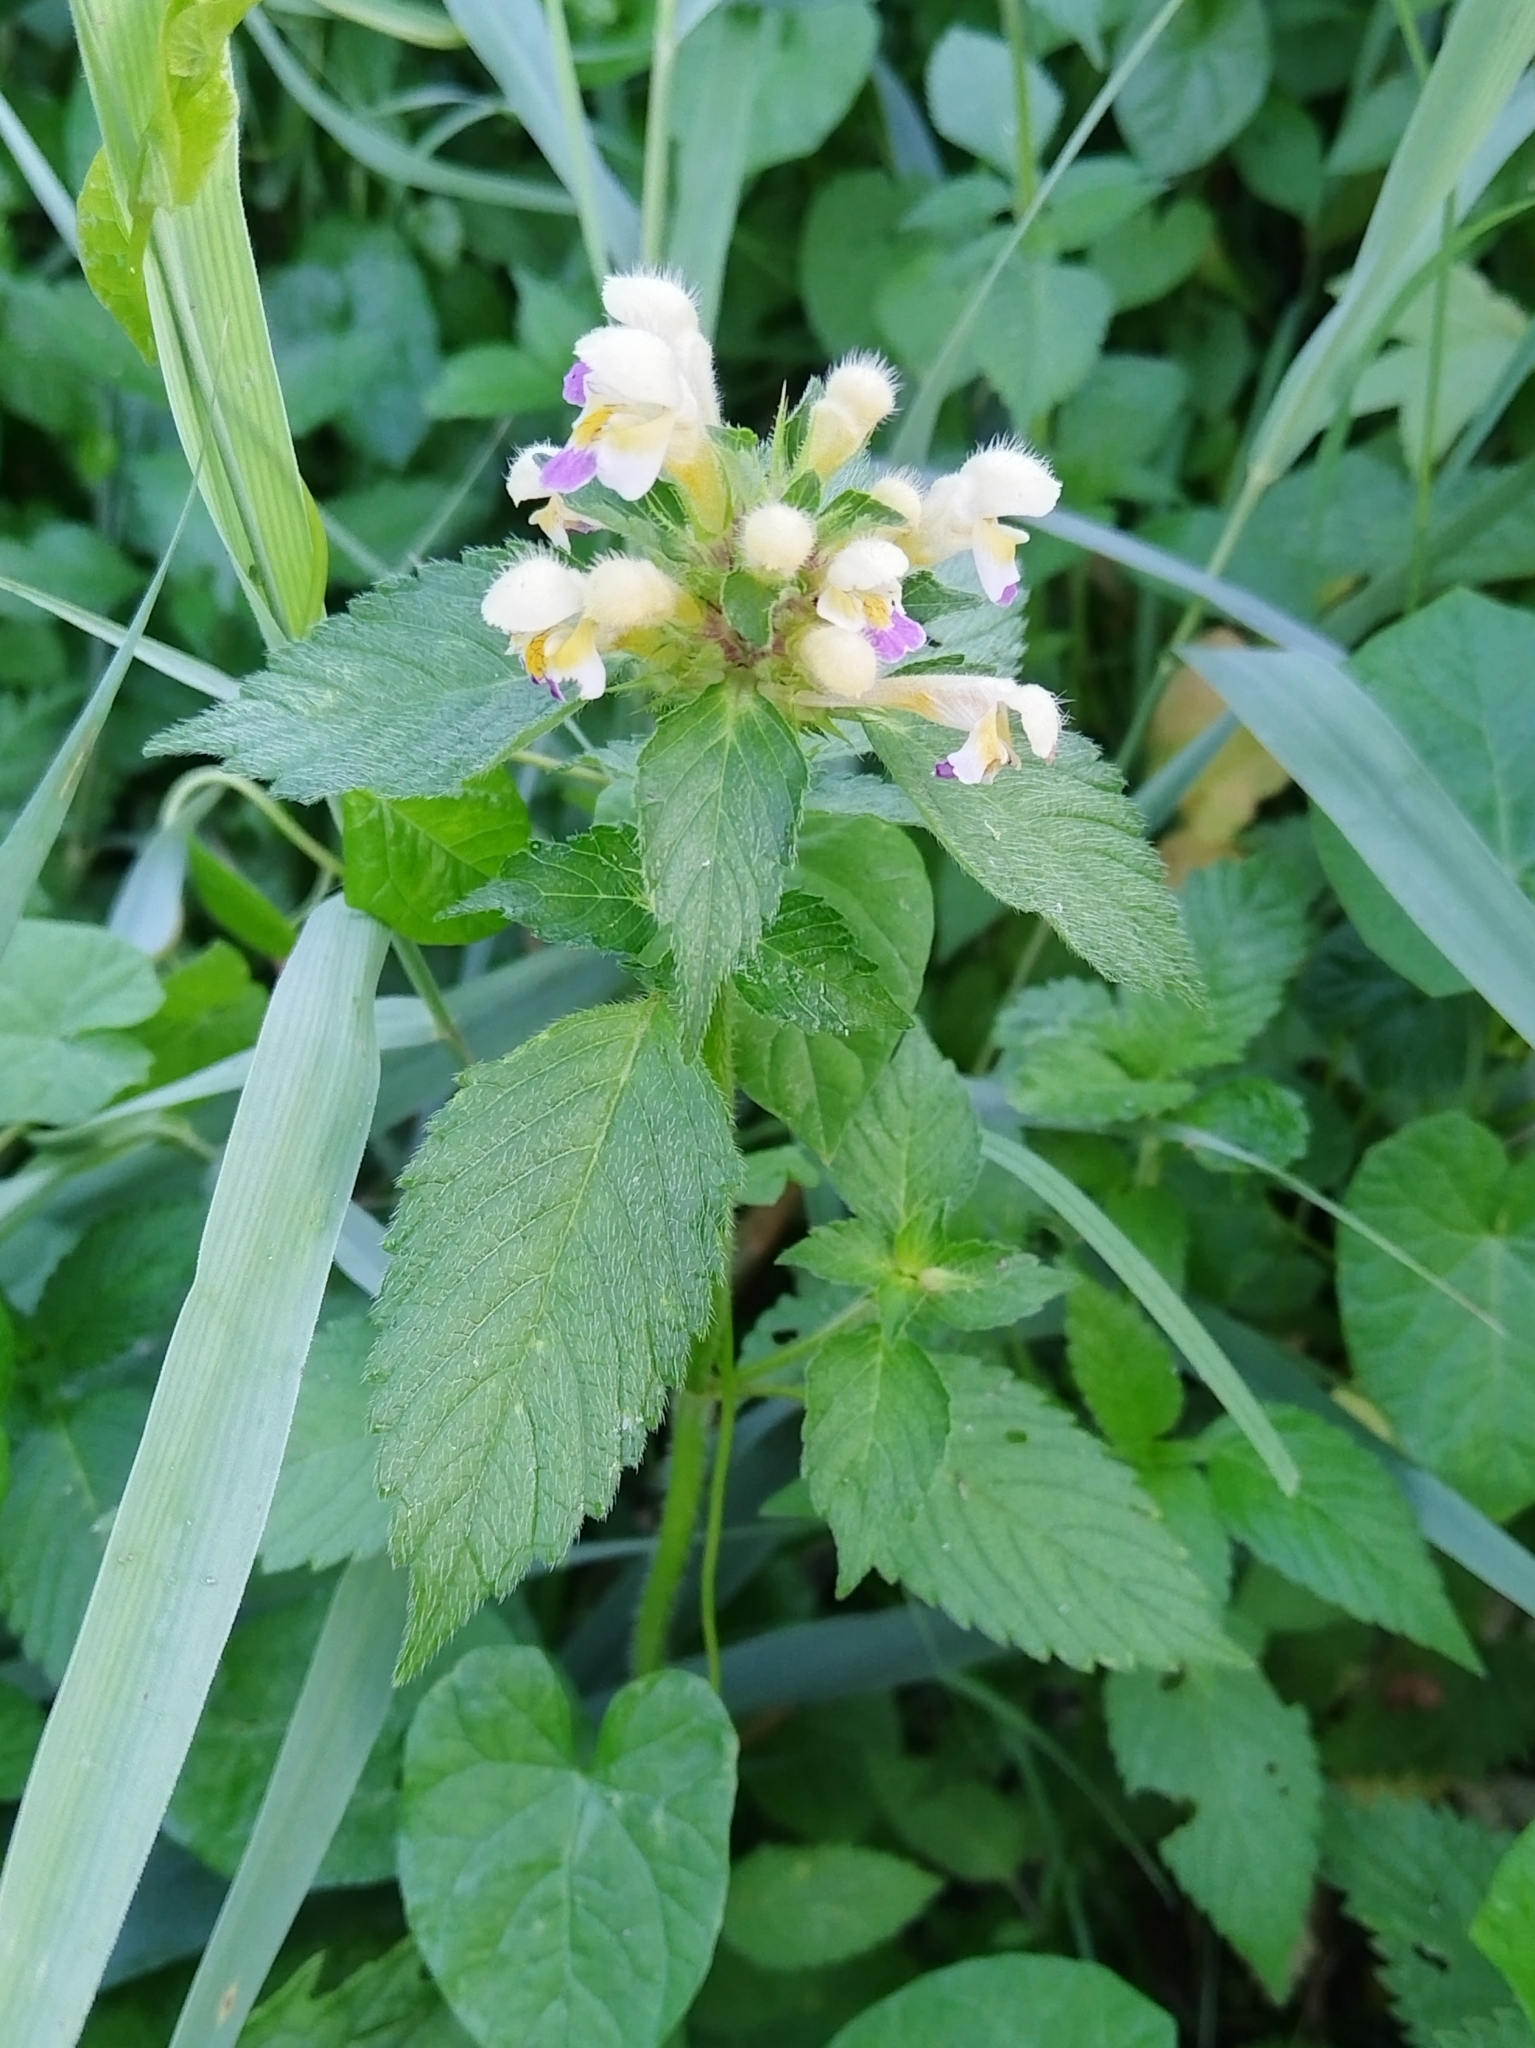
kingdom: Plantae
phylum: Tracheophyta
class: Magnoliopsida
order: Lamiales
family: Lamiaceae
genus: Galeopsis
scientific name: Galeopsis speciosa
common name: Large-flowered hemp-nettle
